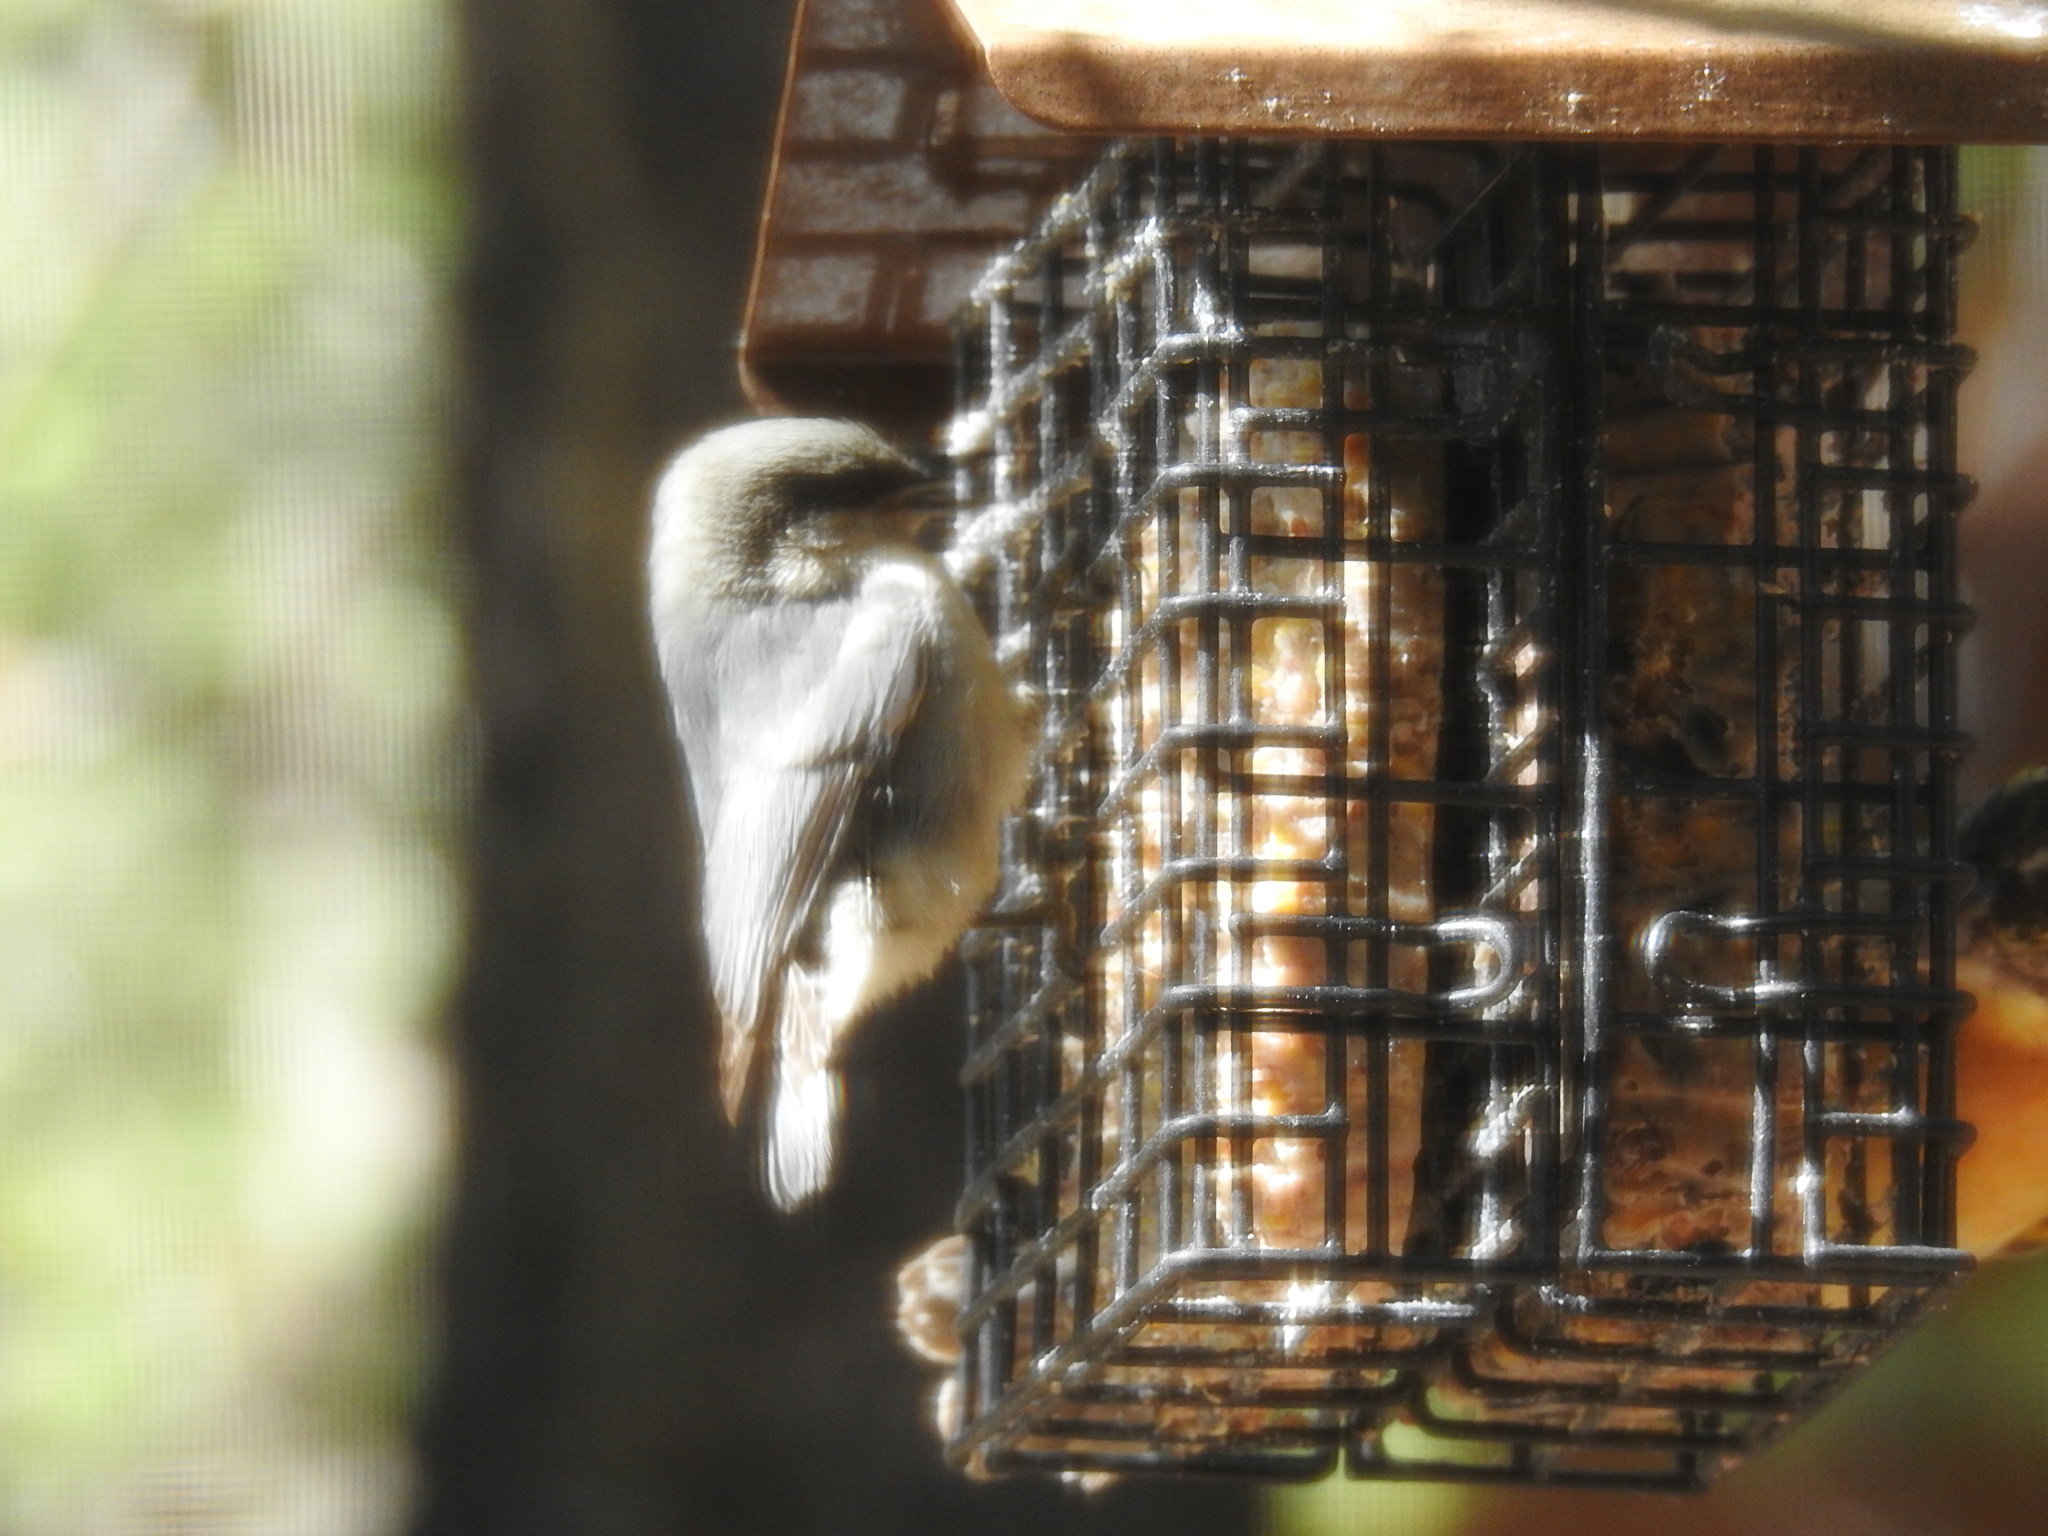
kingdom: Animalia
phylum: Chordata
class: Aves
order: Passeriformes
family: Sittidae
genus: Sitta
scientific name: Sitta pygmaea
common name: Pygmy nuthatch
